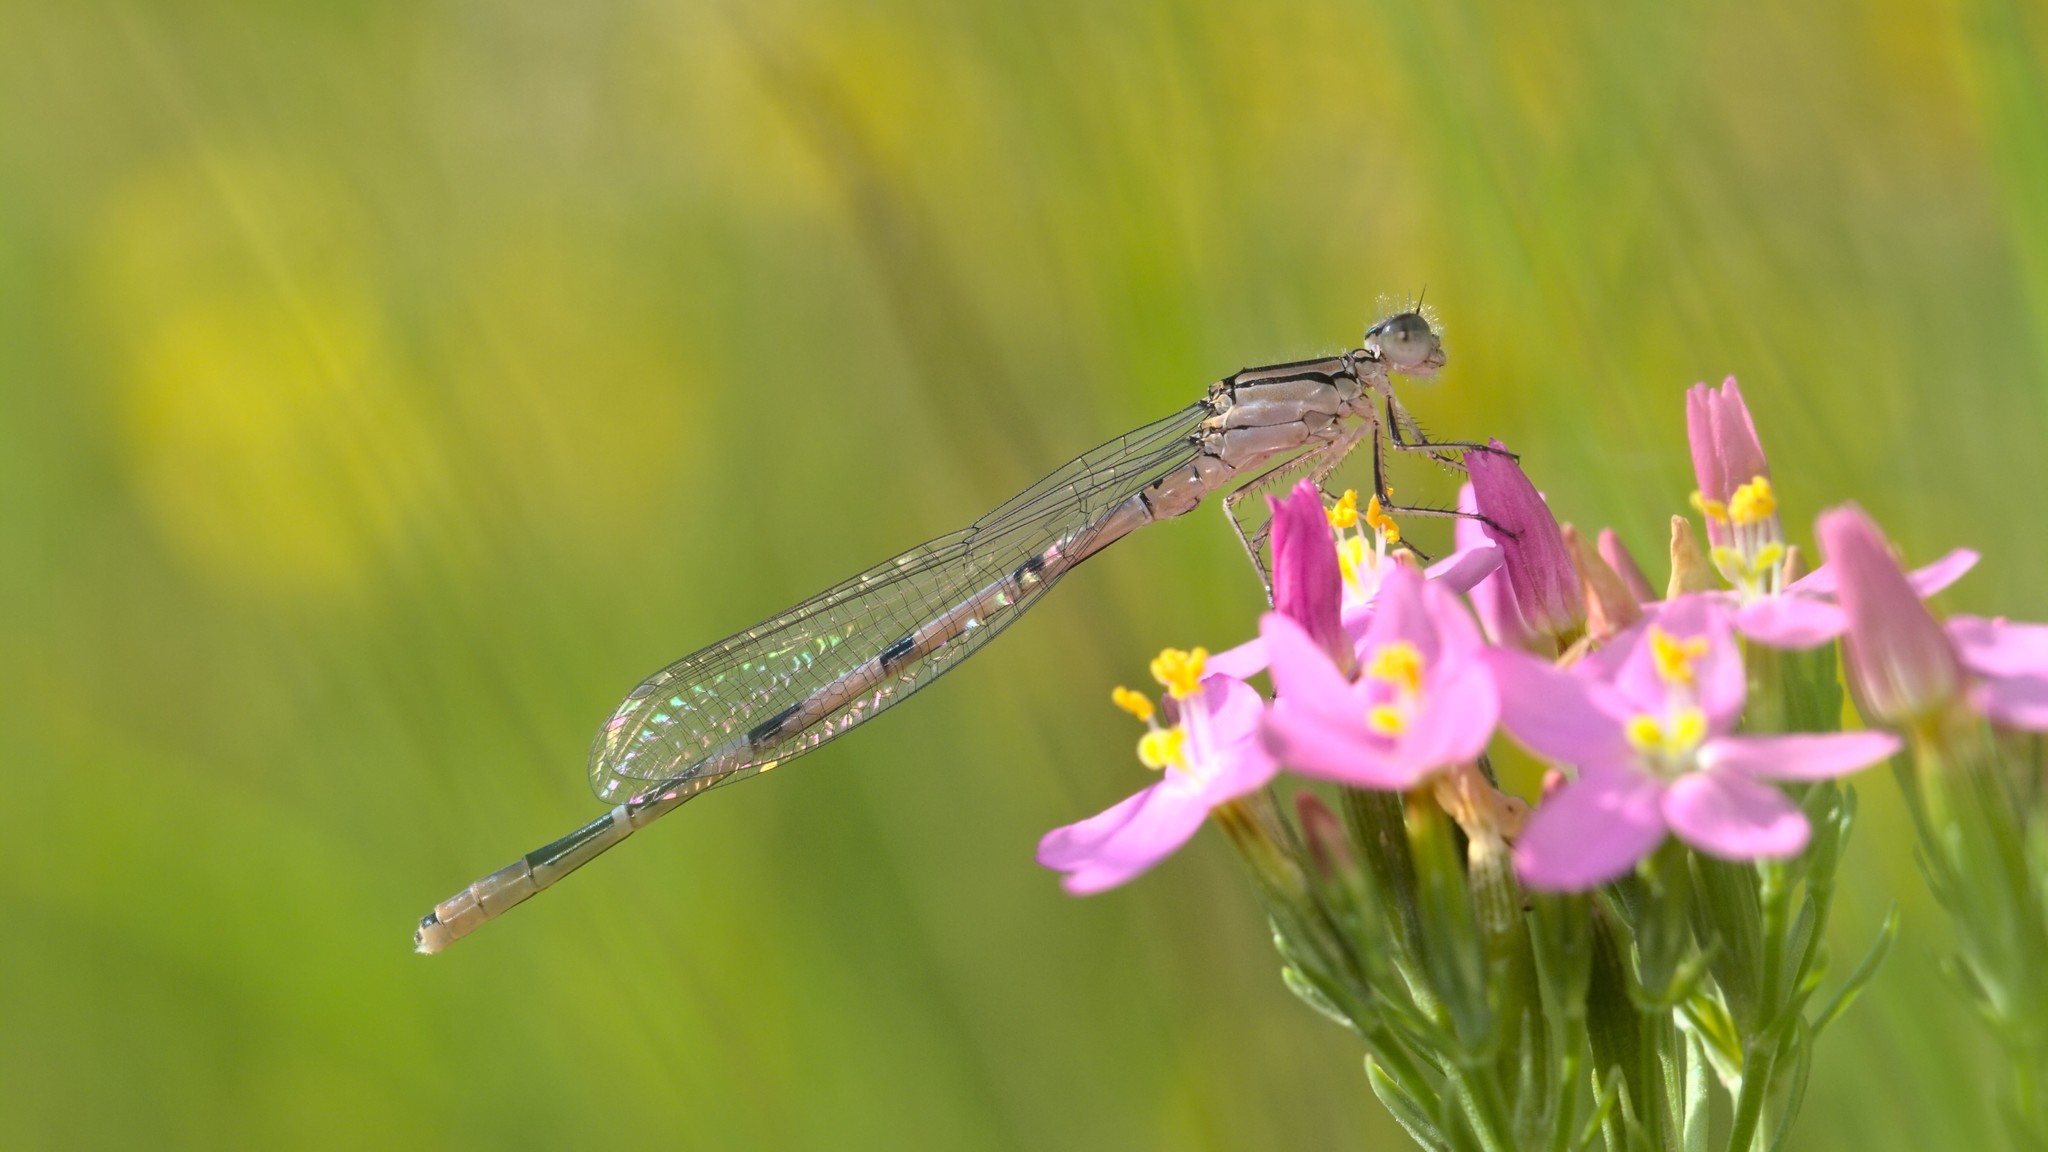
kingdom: Animalia
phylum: Arthropoda
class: Insecta
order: Odonata
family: Coenagrionidae
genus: Enallagma
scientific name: Enallagma cyathigerum
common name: Common blue damselfly
